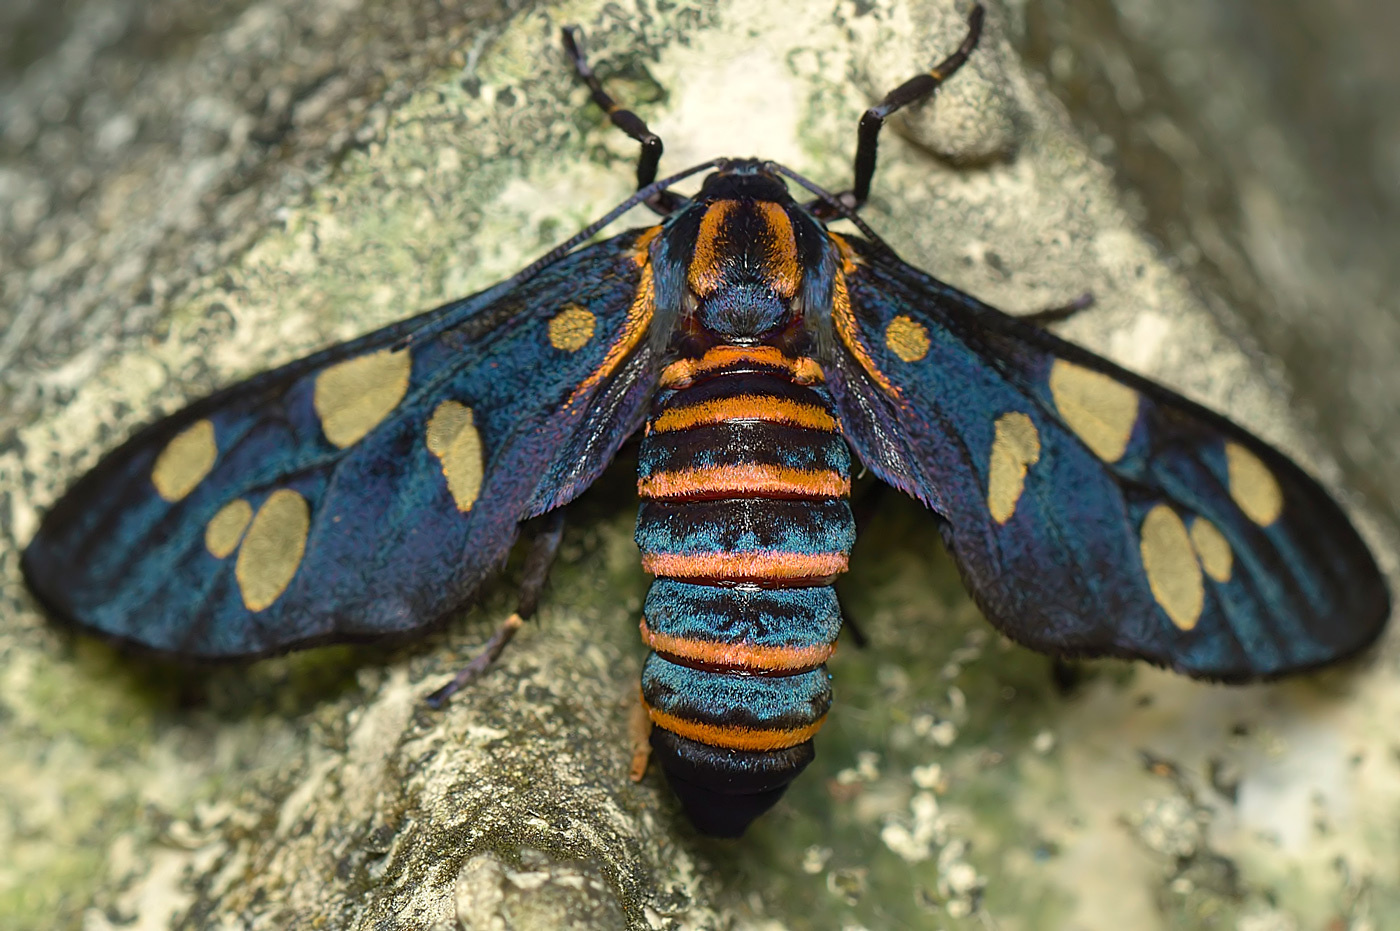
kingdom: Animalia
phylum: Arthropoda
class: Insecta
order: Lepidoptera
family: Erebidae
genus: Amata
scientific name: Amata passalis
